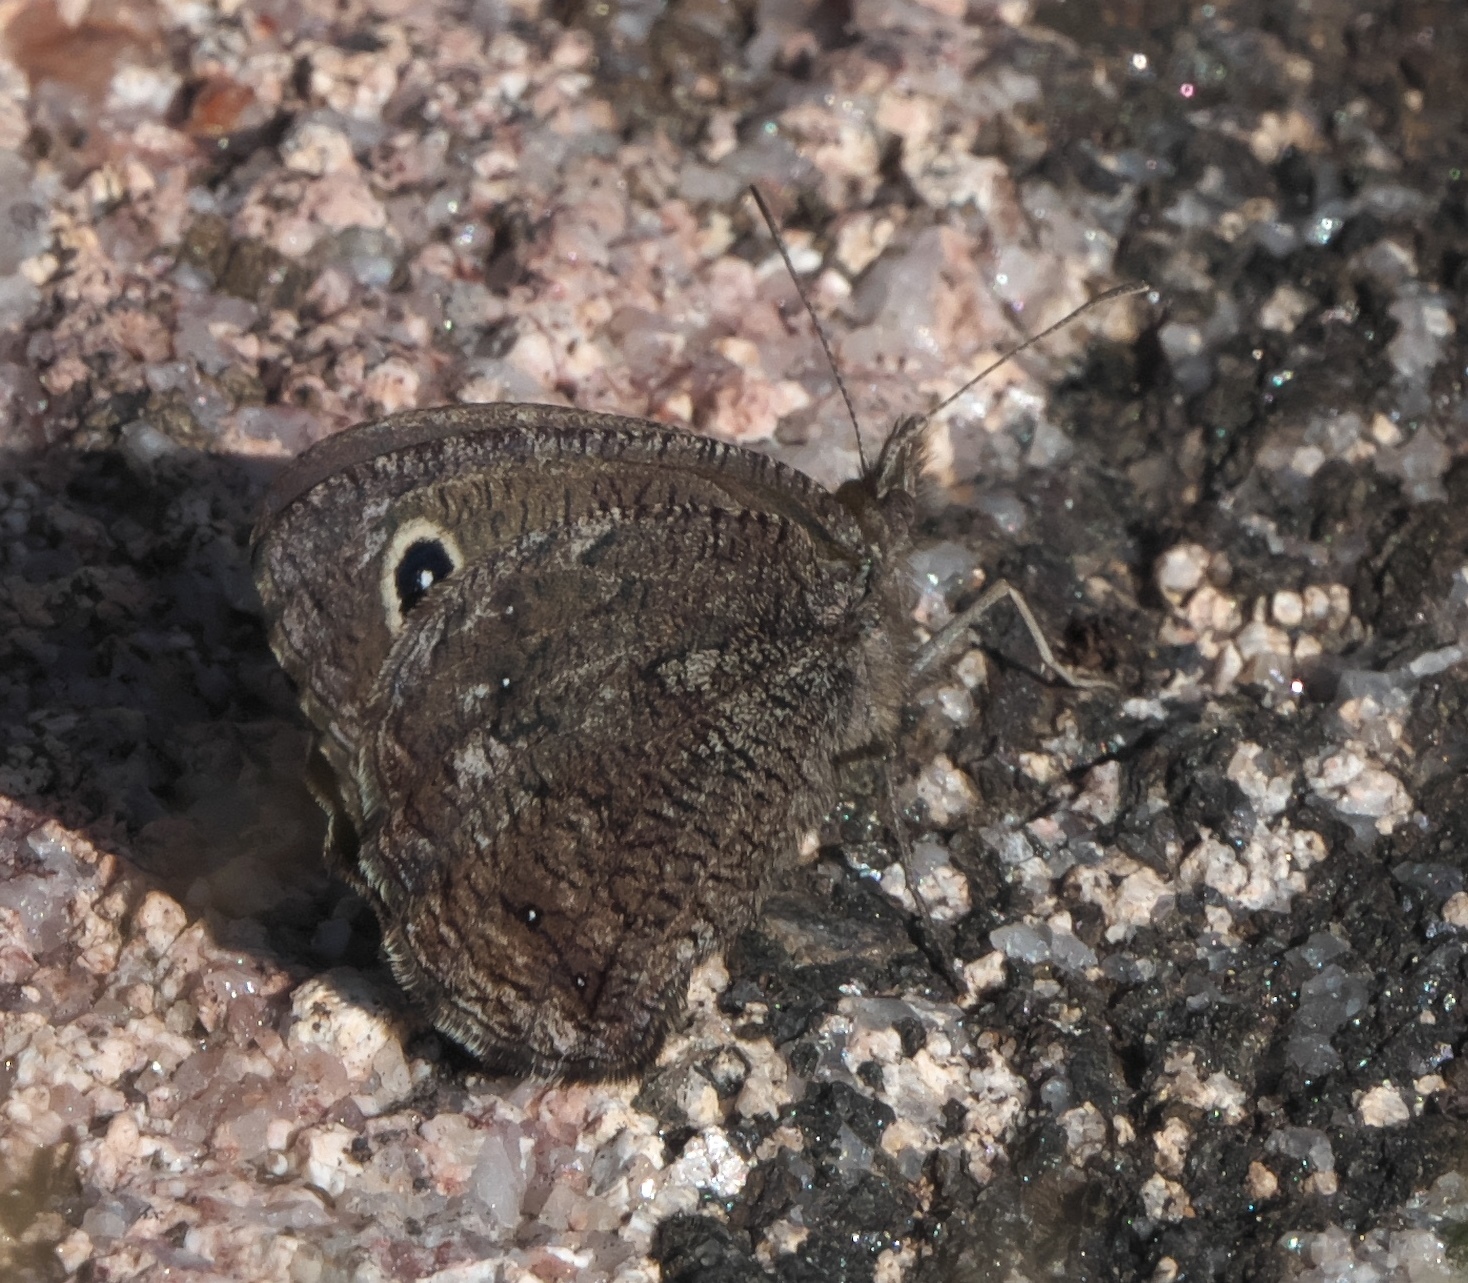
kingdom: Animalia
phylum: Arthropoda
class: Insecta
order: Lepidoptera
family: Nymphalidae
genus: Cercyonis
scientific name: Cercyonis oetus
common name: Small wood-nymph
